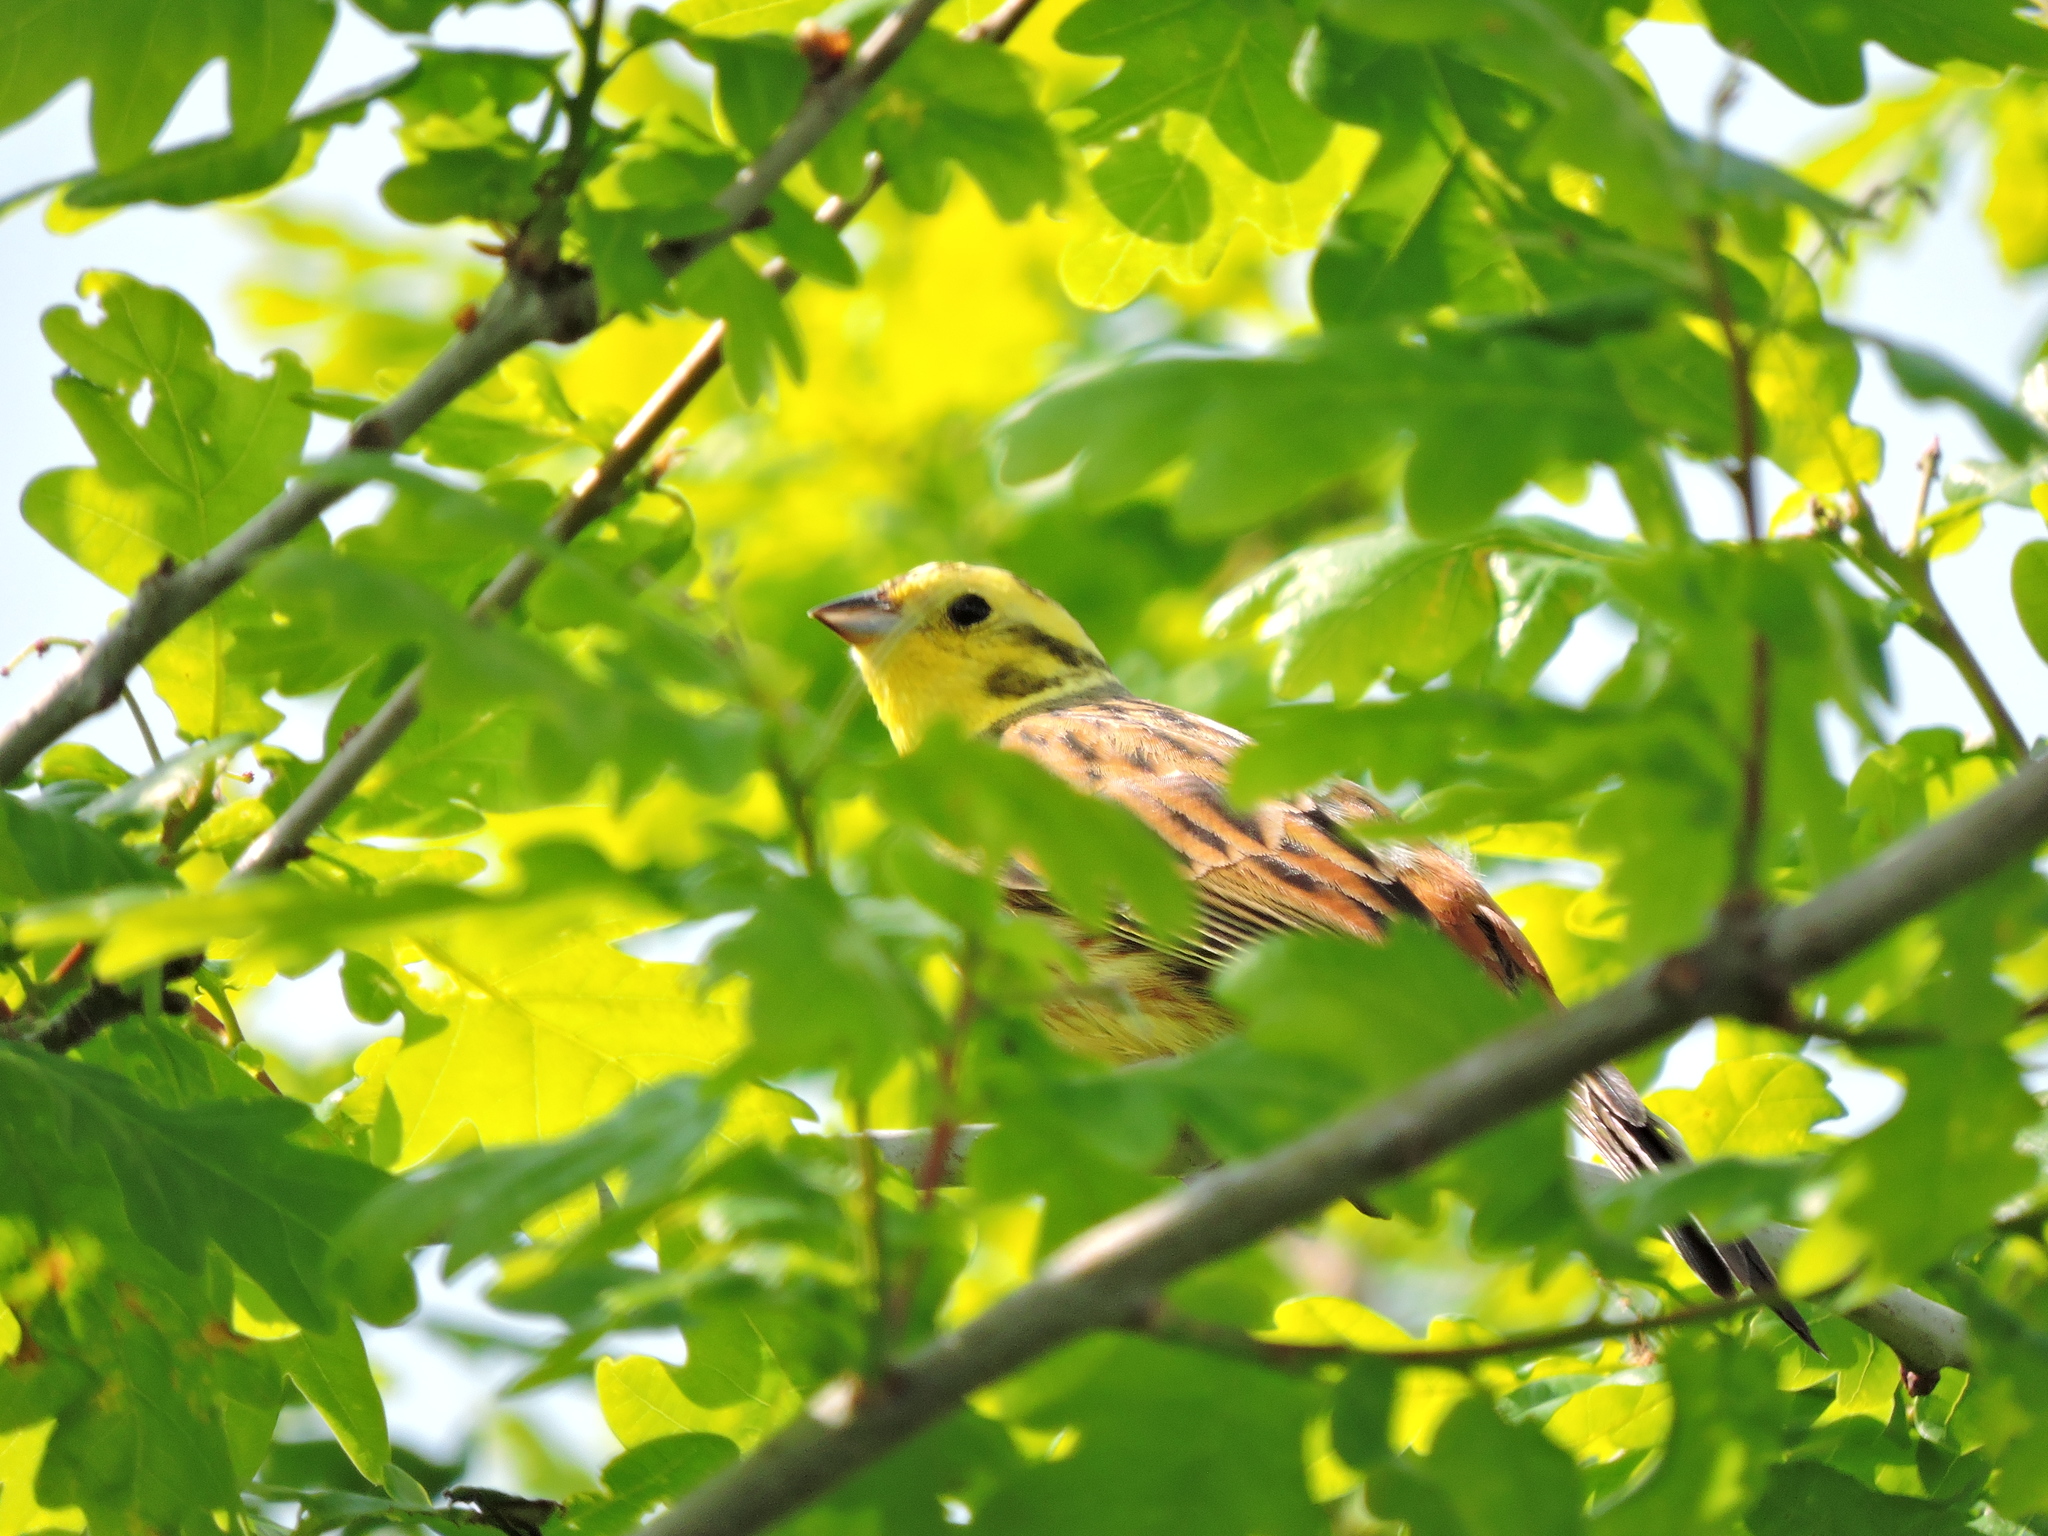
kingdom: Animalia
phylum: Chordata
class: Aves
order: Passeriformes
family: Emberizidae
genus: Emberiza
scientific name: Emberiza citrinella
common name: Yellowhammer
